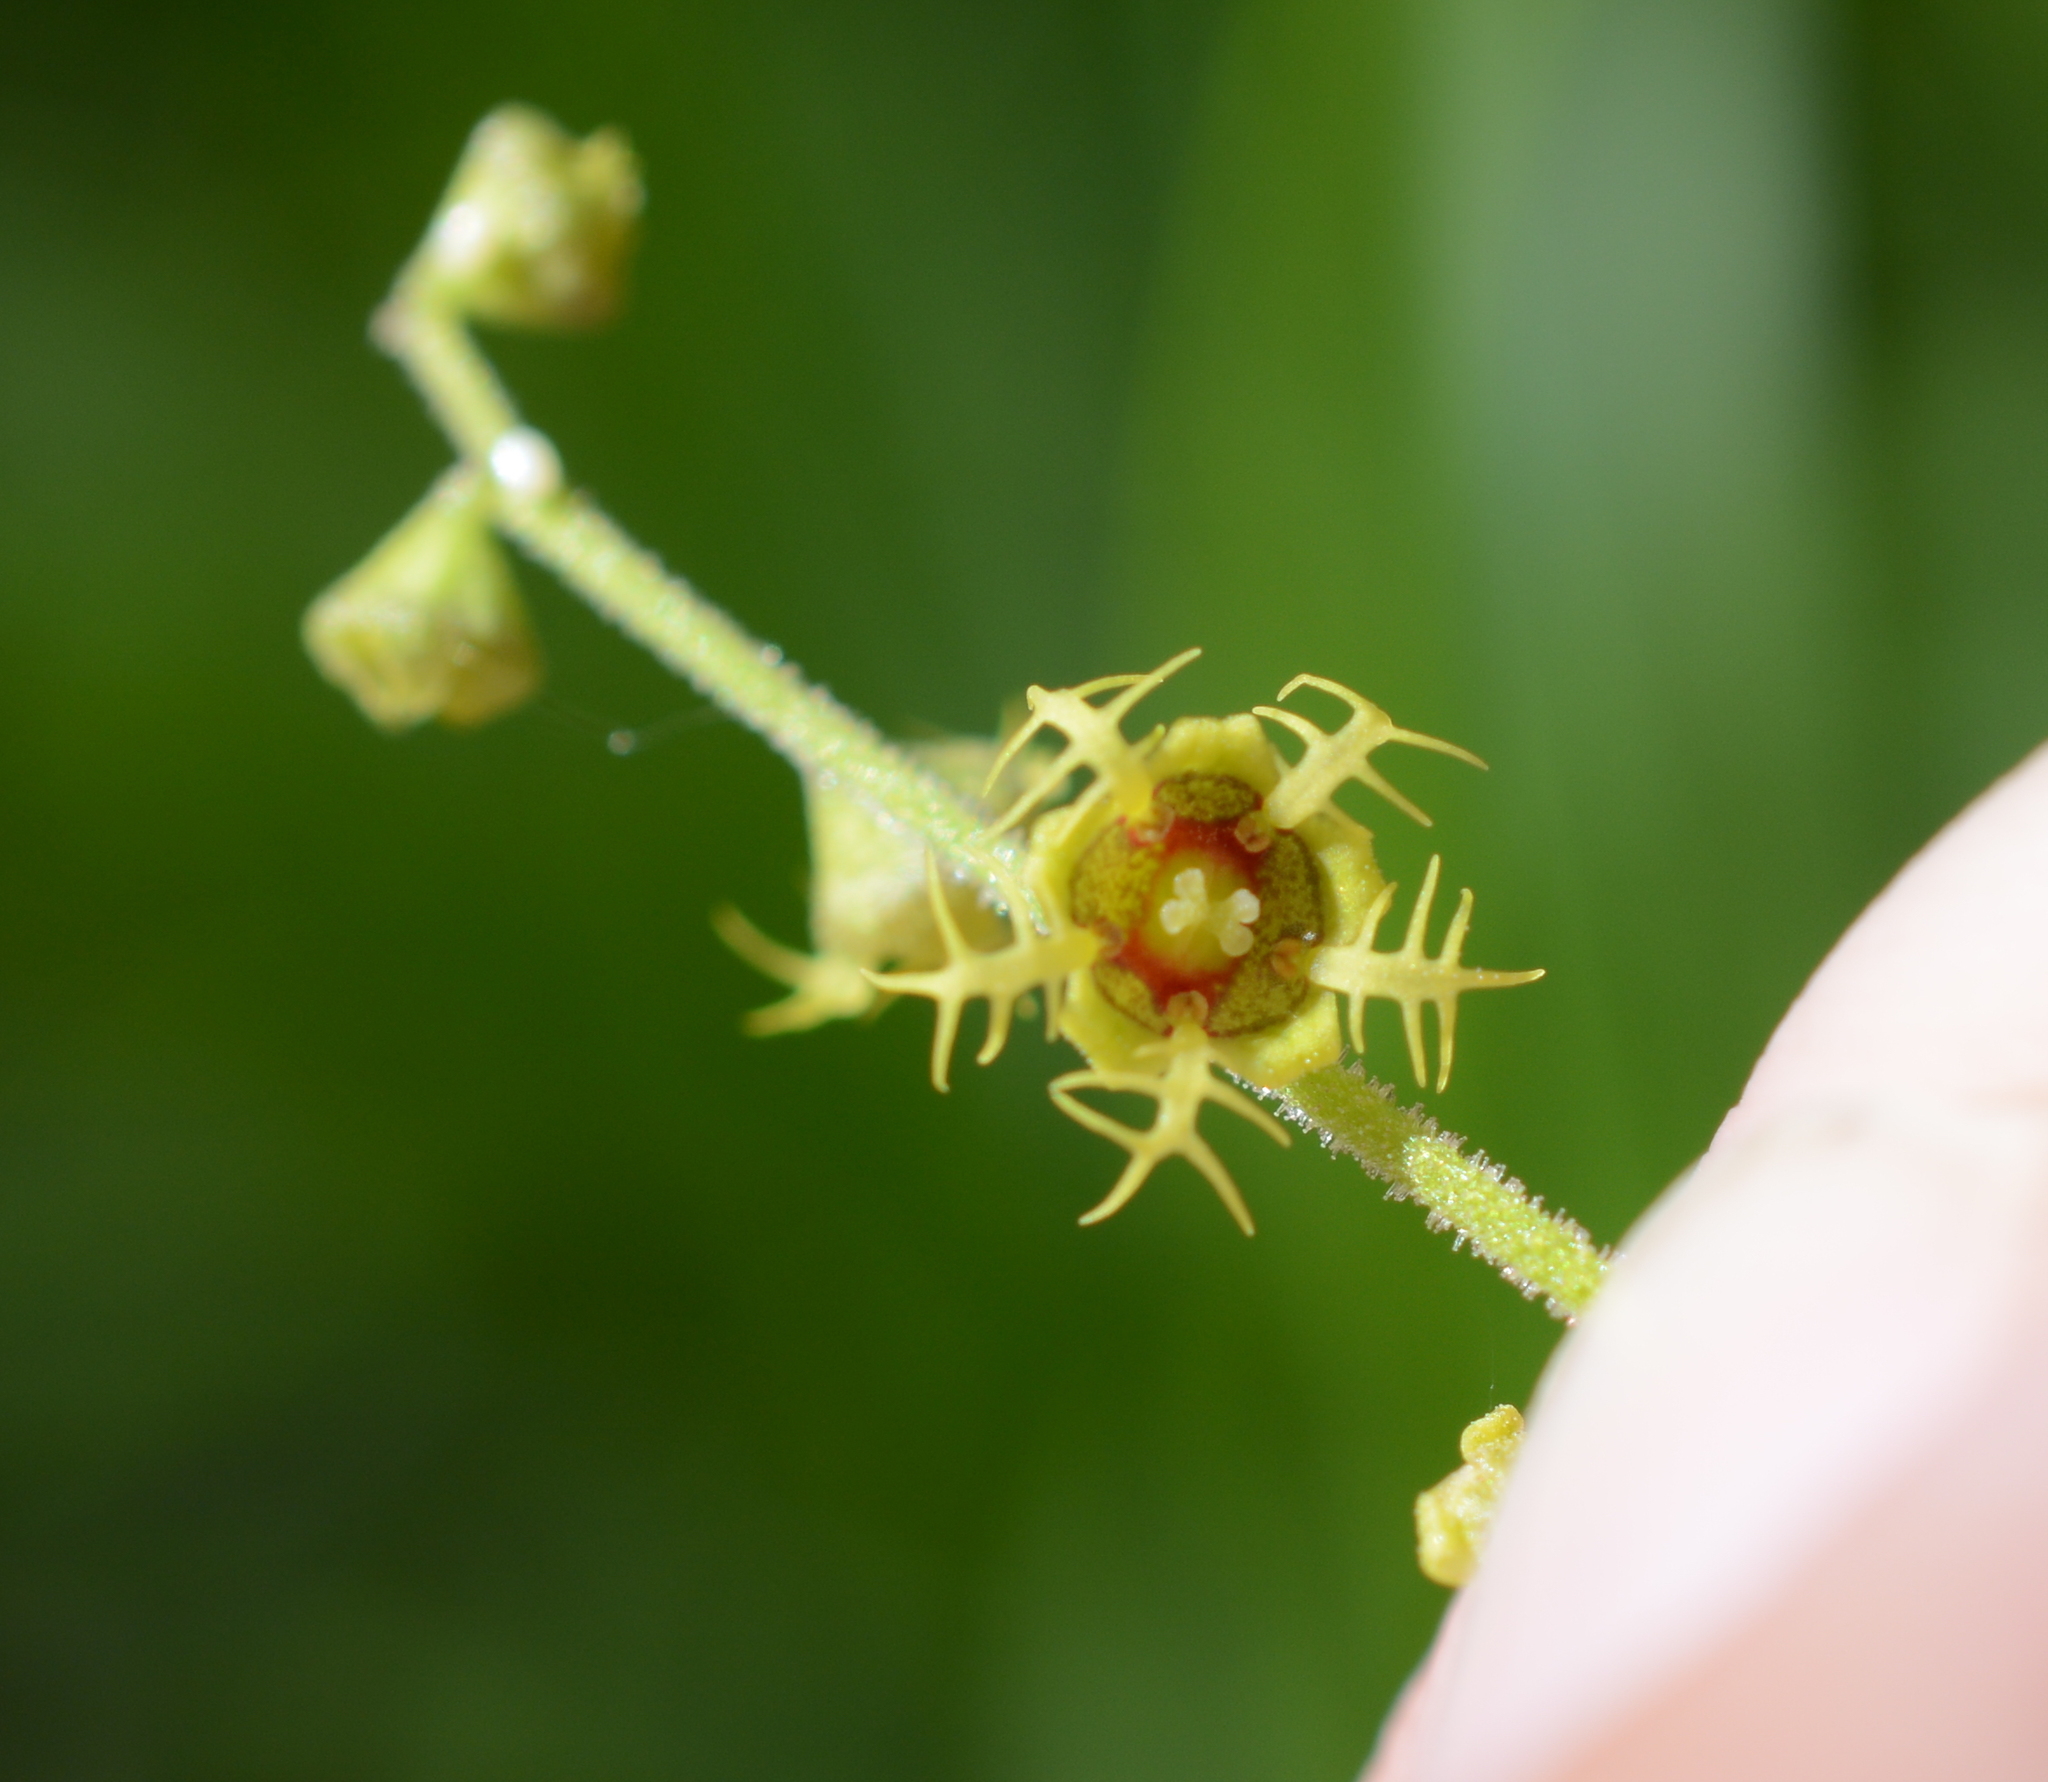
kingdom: Plantae
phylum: Tracheophyta
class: Magnoliopsida
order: Saxifragales
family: Saxifragaceae
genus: Pectiantia
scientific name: Pectiantia pentandra
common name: Alpine bishop's-cap
